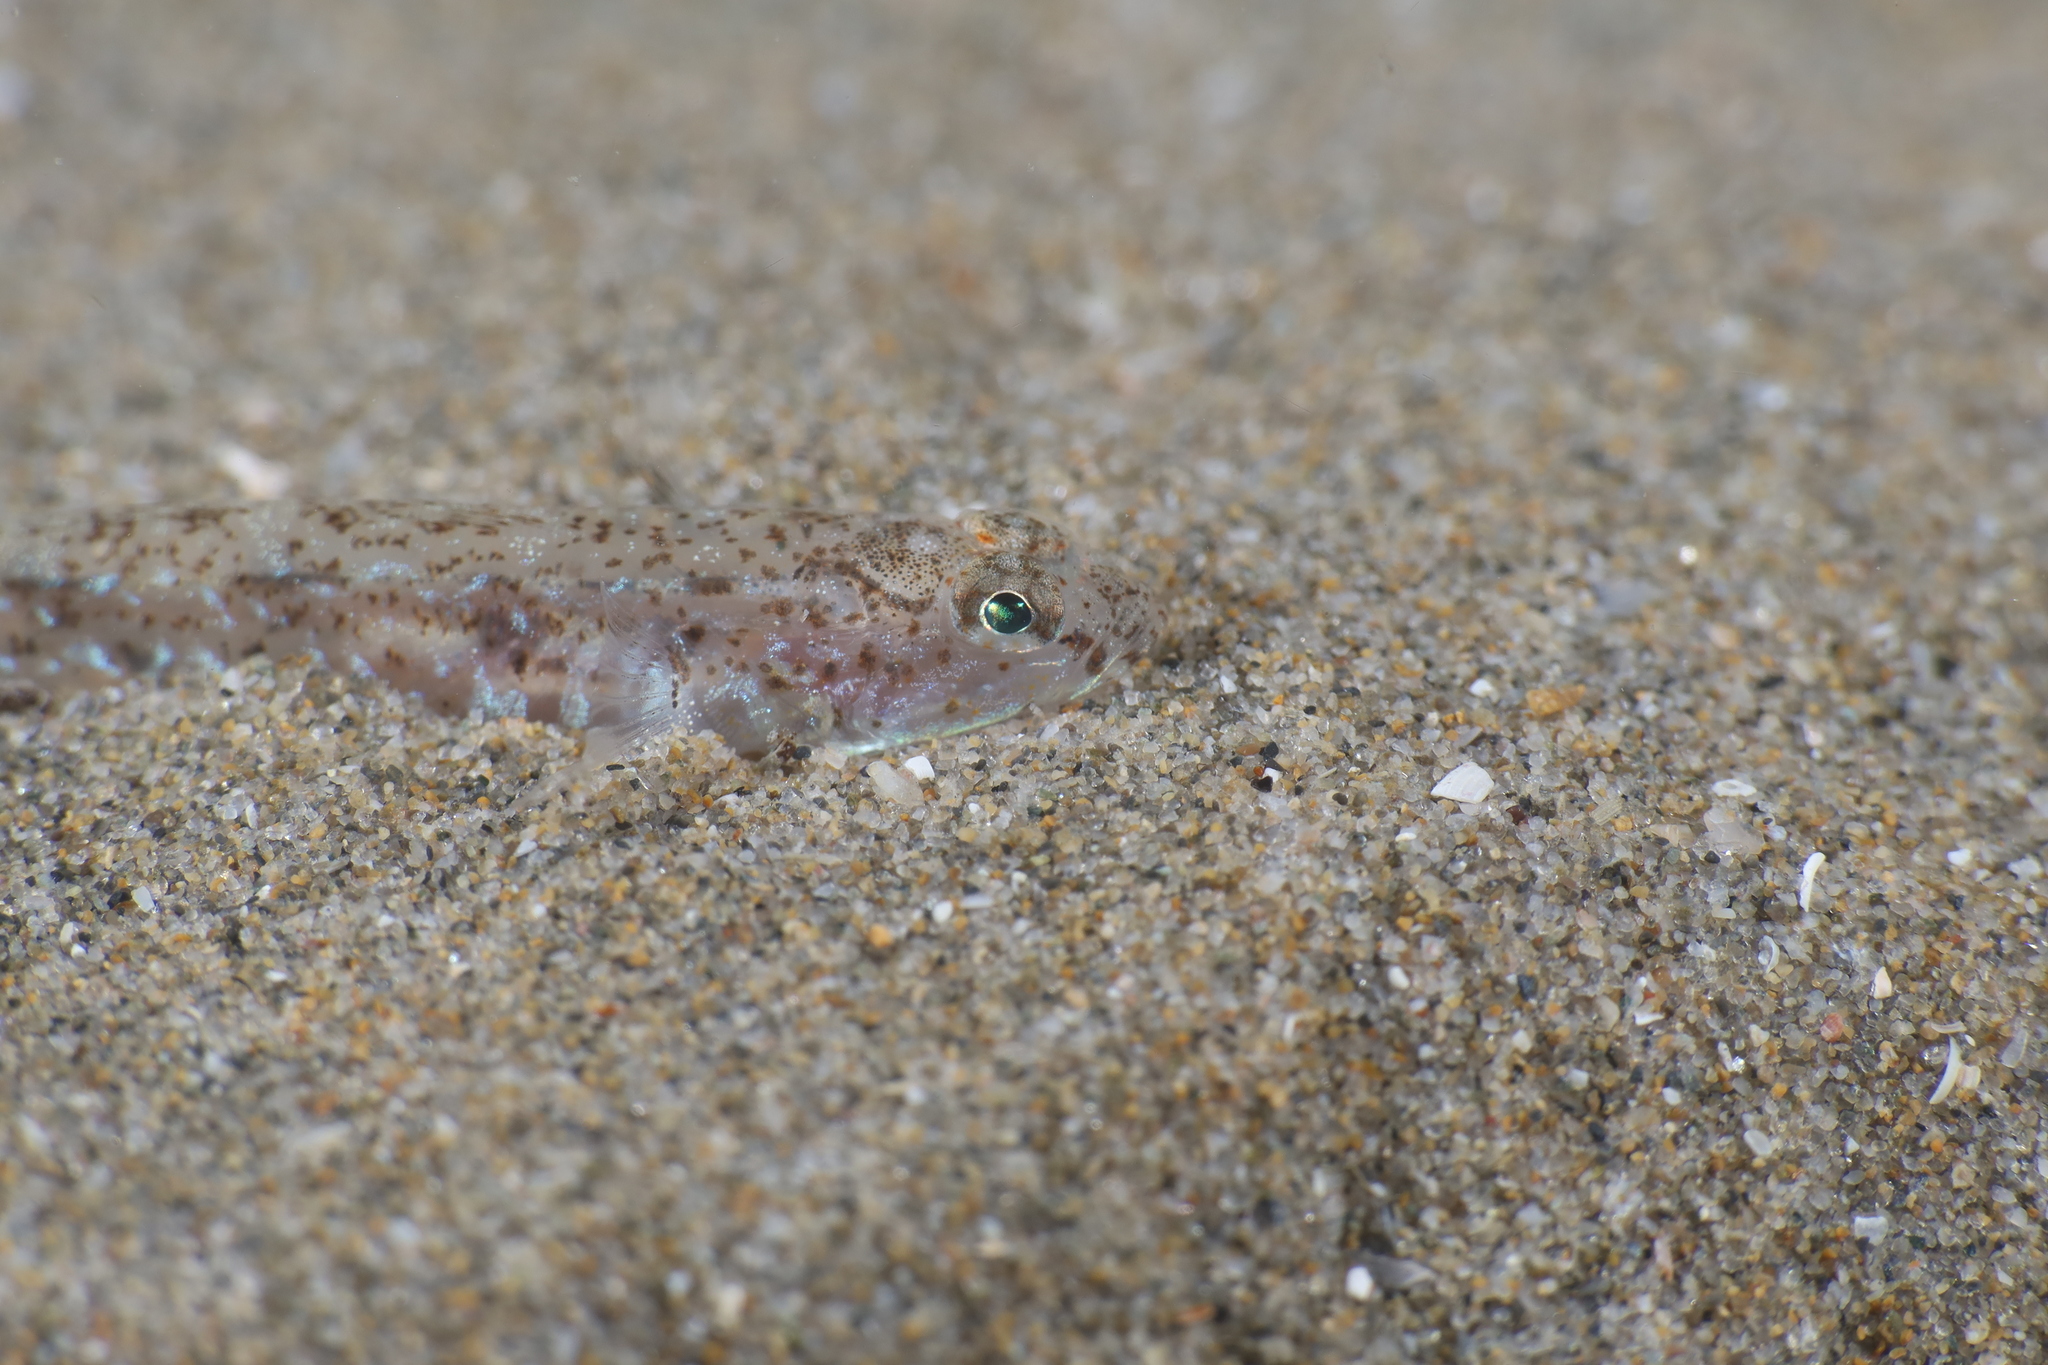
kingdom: Animalia
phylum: Chordata
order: Perciformes
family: Gobiidae
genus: Pomatoschistus
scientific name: Pomatoschistus marmoratus
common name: Marbled goby
